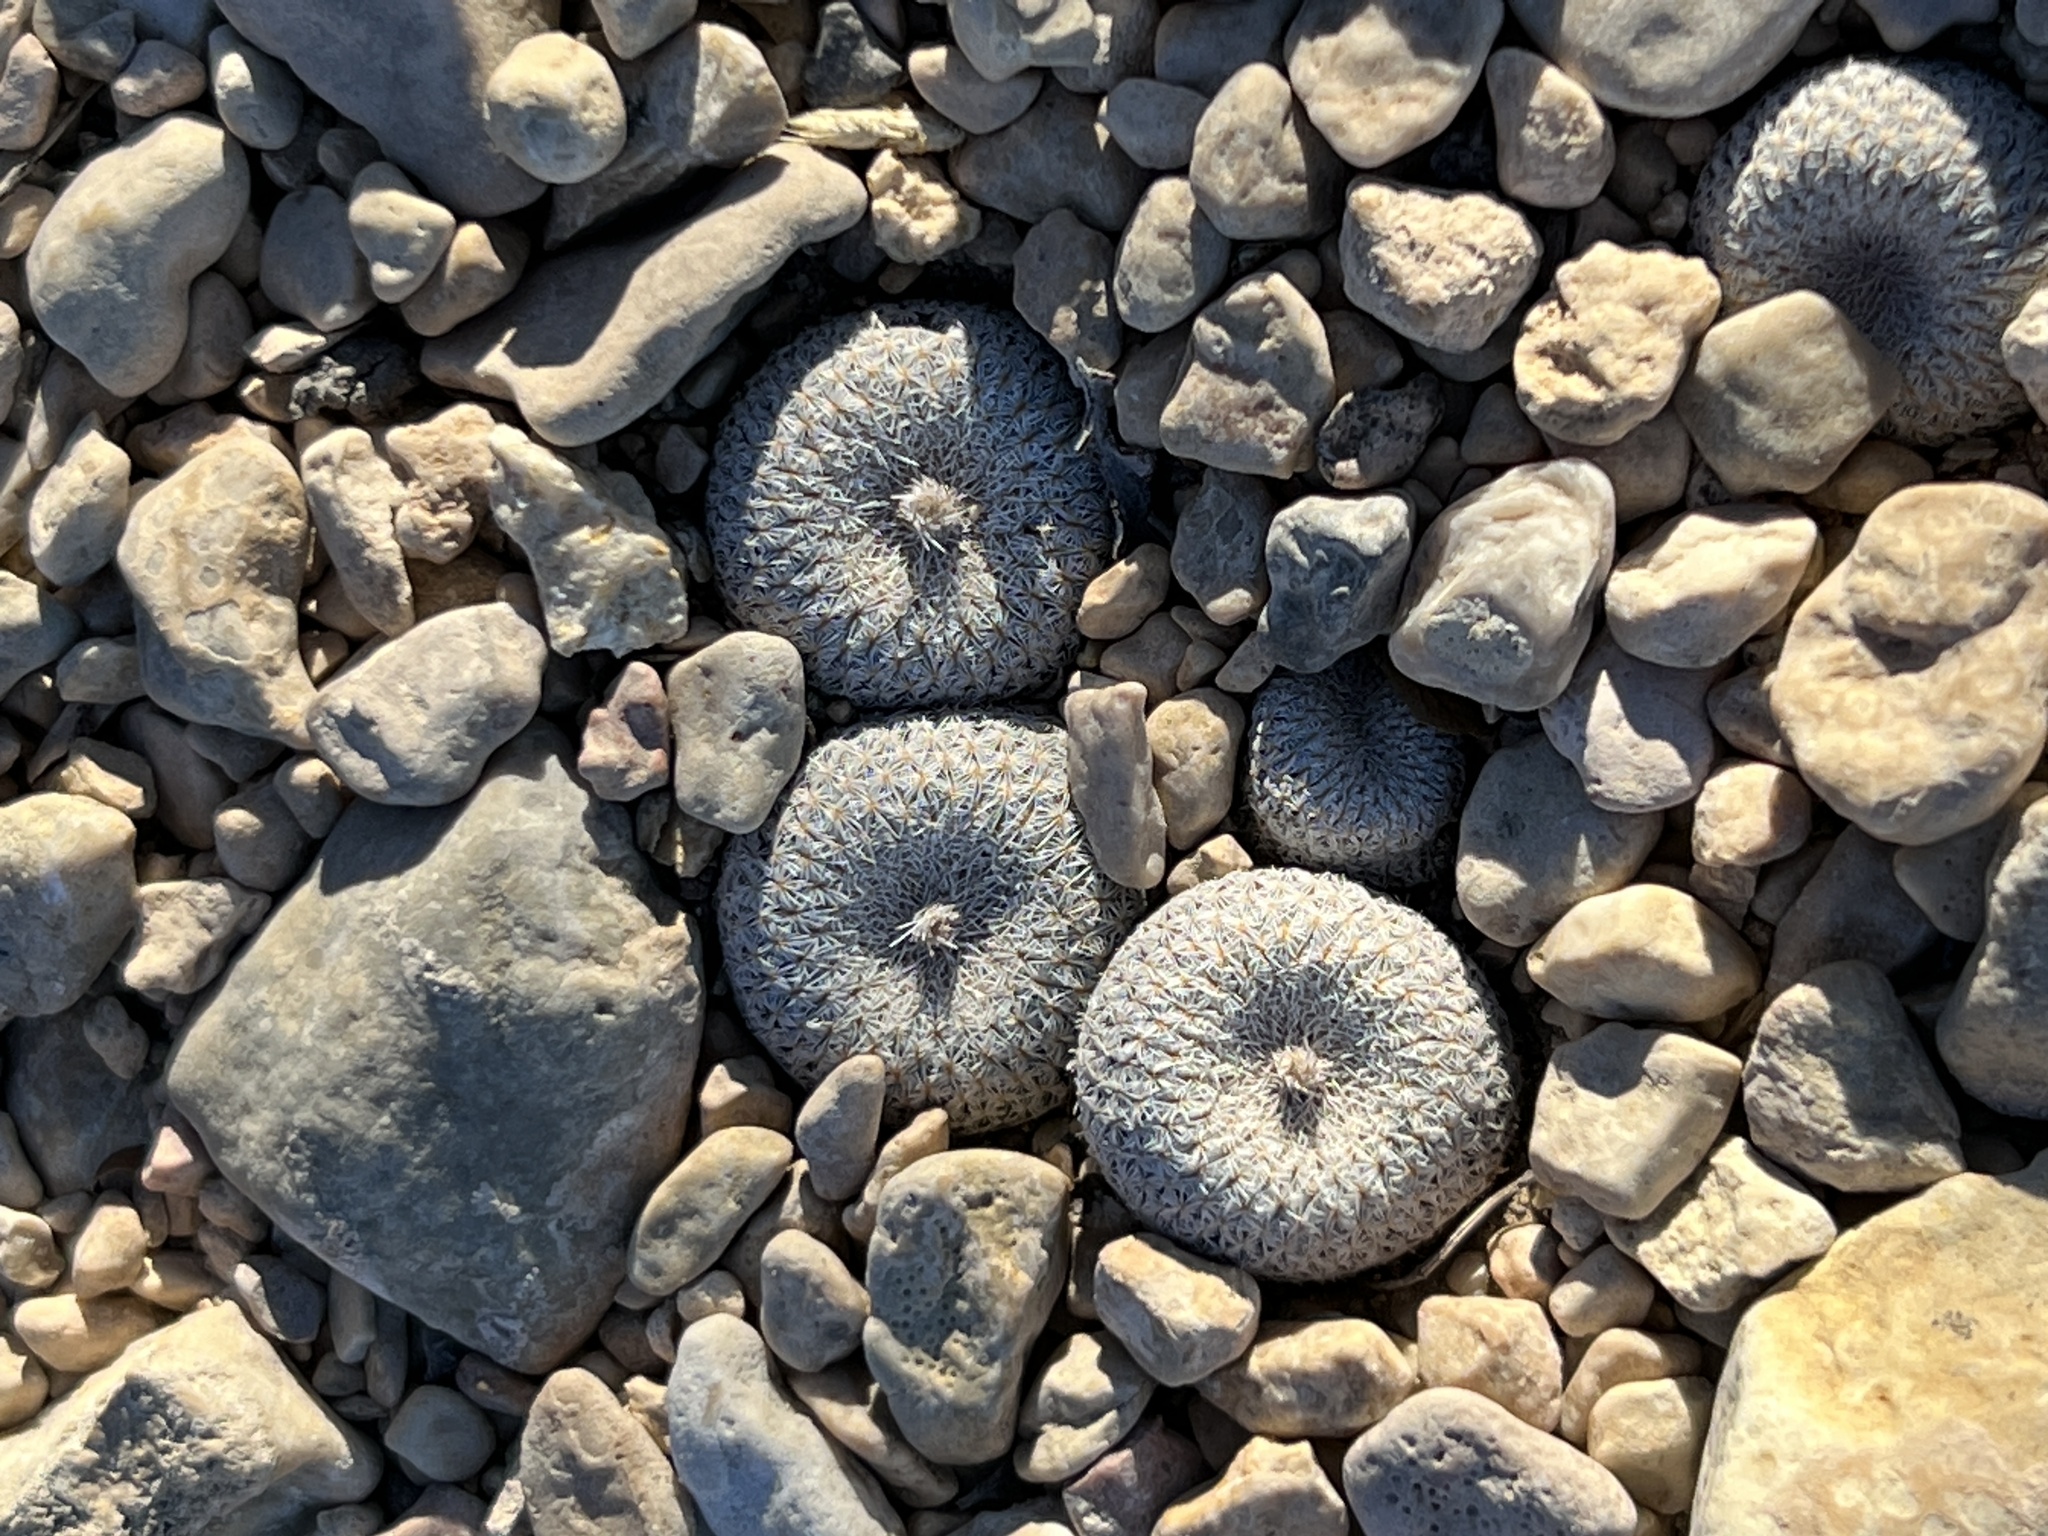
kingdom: Plantae
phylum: Tracheophyta
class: Magnoliopsida
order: Caryophyllales
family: Cactaceae
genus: Epithelantha
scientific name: Epithelantha micromeris
